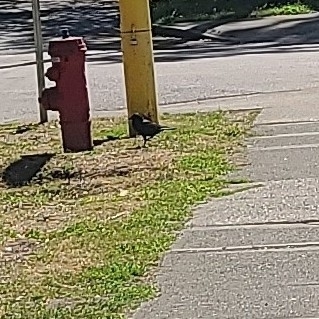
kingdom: Animalia
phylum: Chordata
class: Aves
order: Passeriformes
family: Corvidae
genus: Corvus
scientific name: Corvus brachyrhynchos
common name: American crow
